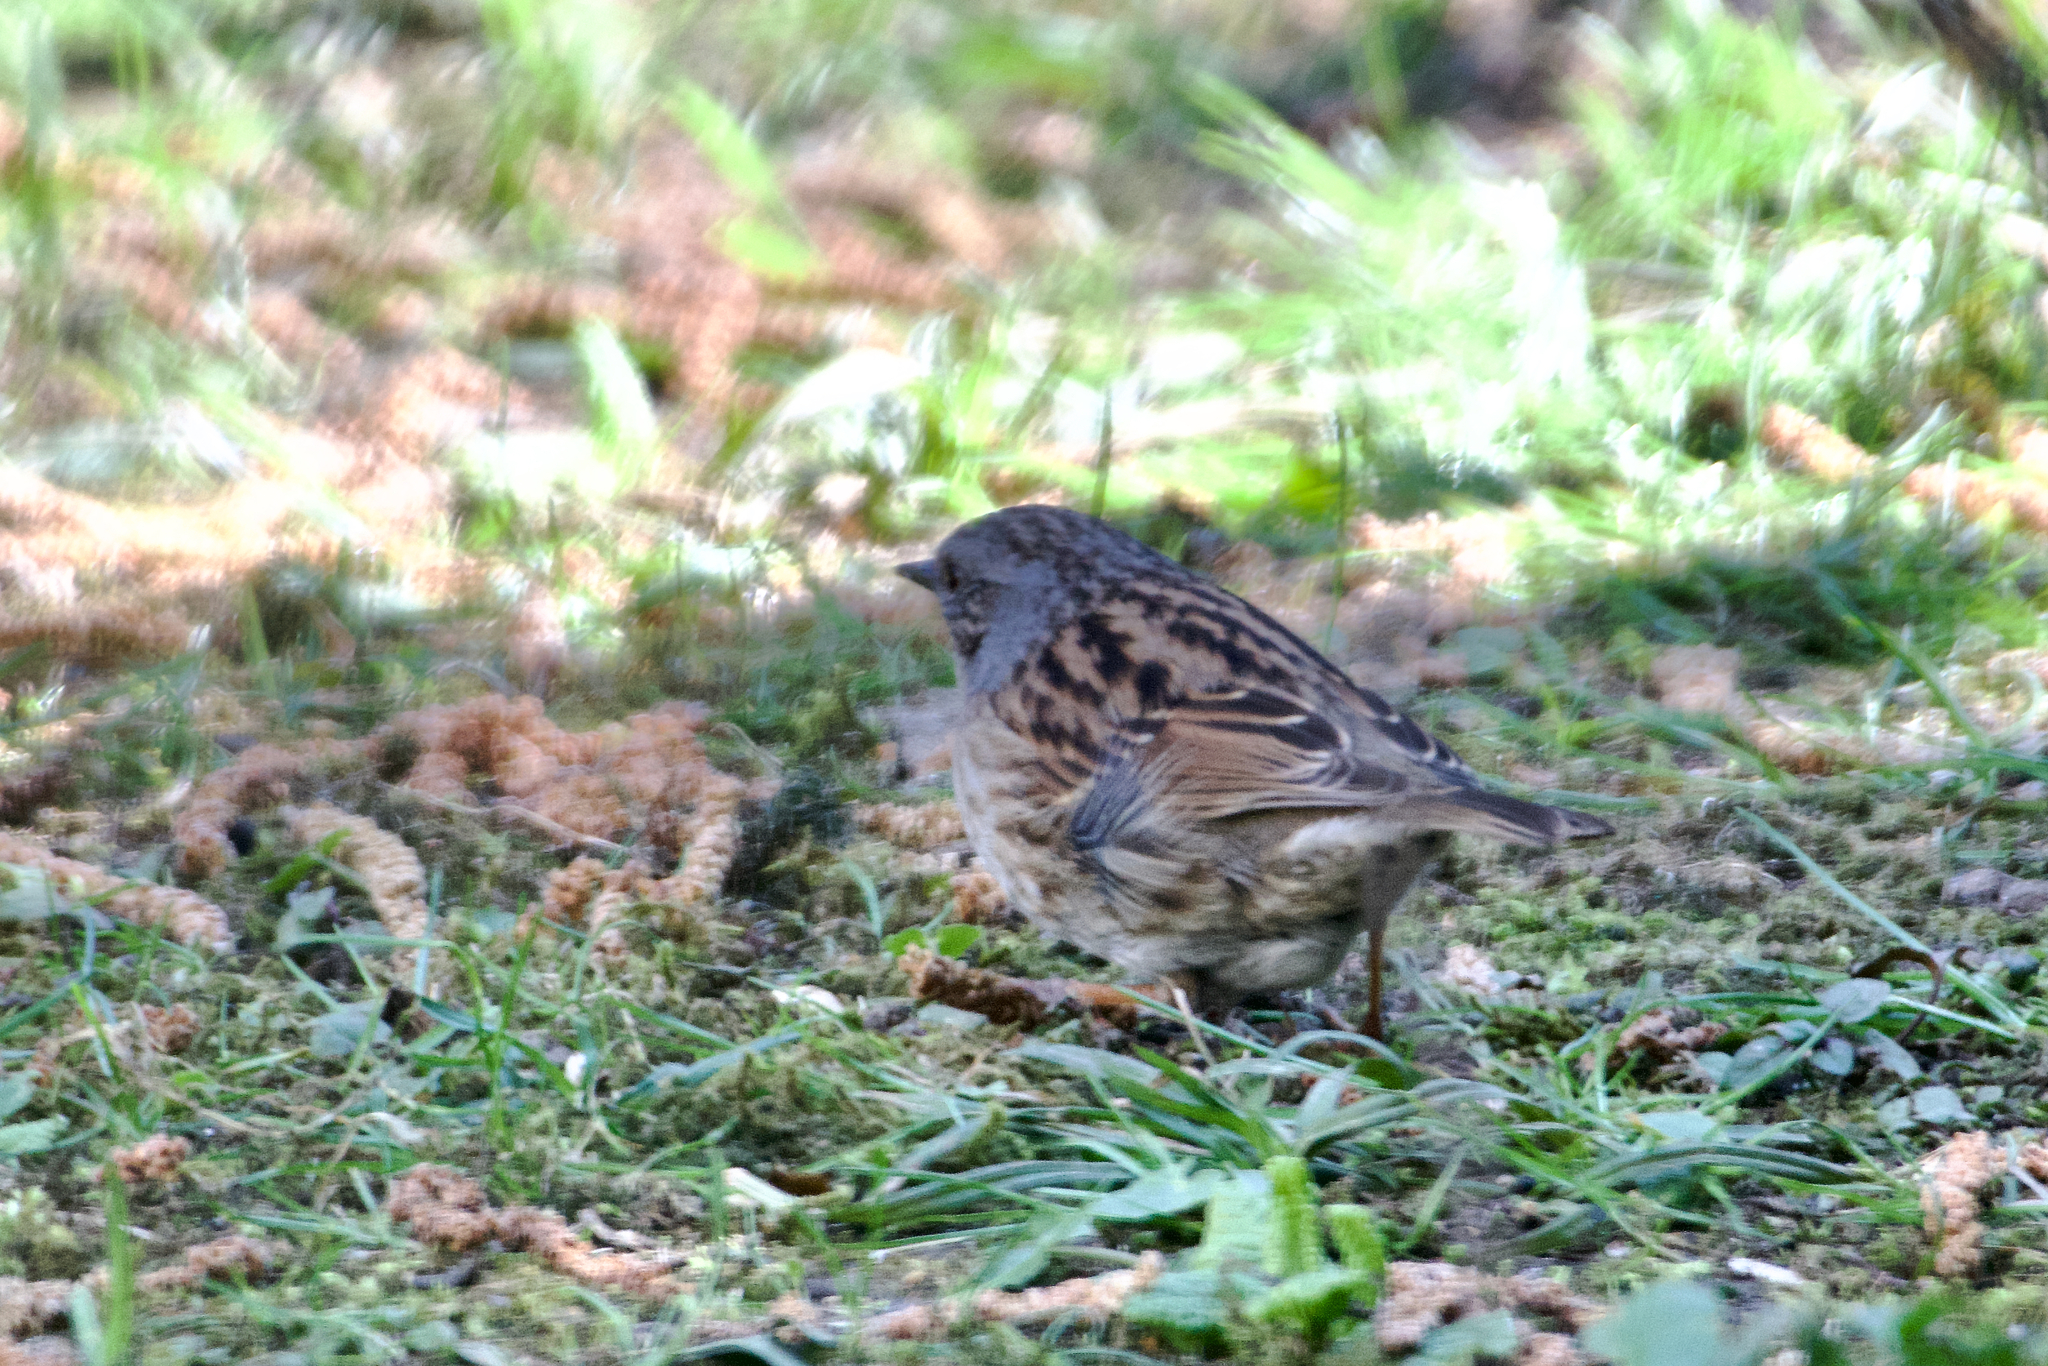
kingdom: Animalia
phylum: Chordata
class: Aves
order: Passeriformes
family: Prunellidae
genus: Prunella
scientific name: Prunella modularis
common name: Dunnock
